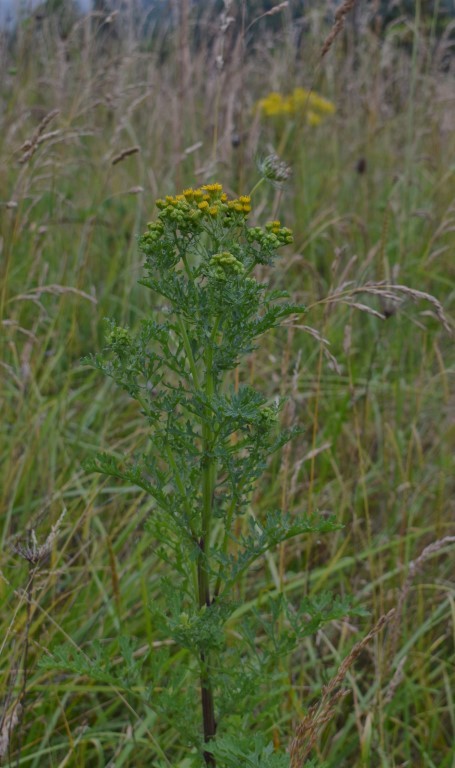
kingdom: Plantae
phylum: Tracheophyta
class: Magnoliopsida
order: Asterales
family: Asteraceae
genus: Jacobaea
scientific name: Jacobaea vulgaris
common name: Stinking willie
